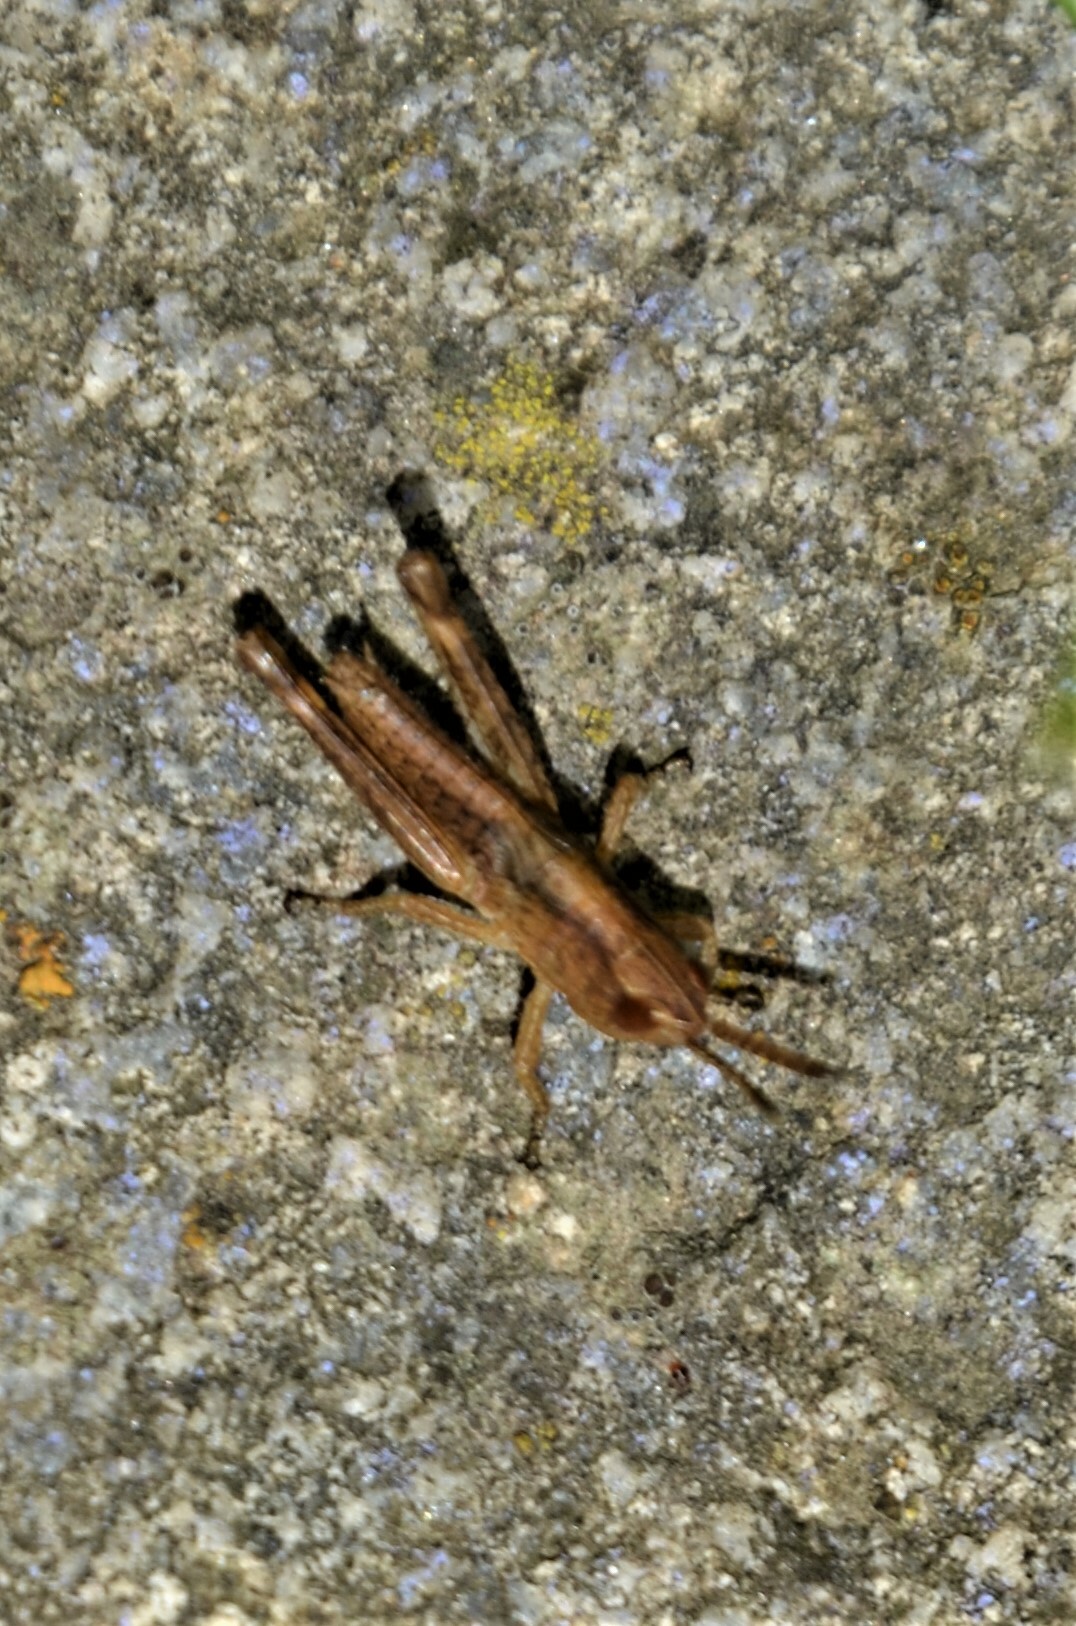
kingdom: Animalia
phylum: Arthropoda
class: Insecta
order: Orthoptera
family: Acrididae
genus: Gomphocerippus
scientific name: Gomphocerippus rufus
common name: Rufous grasshopper
